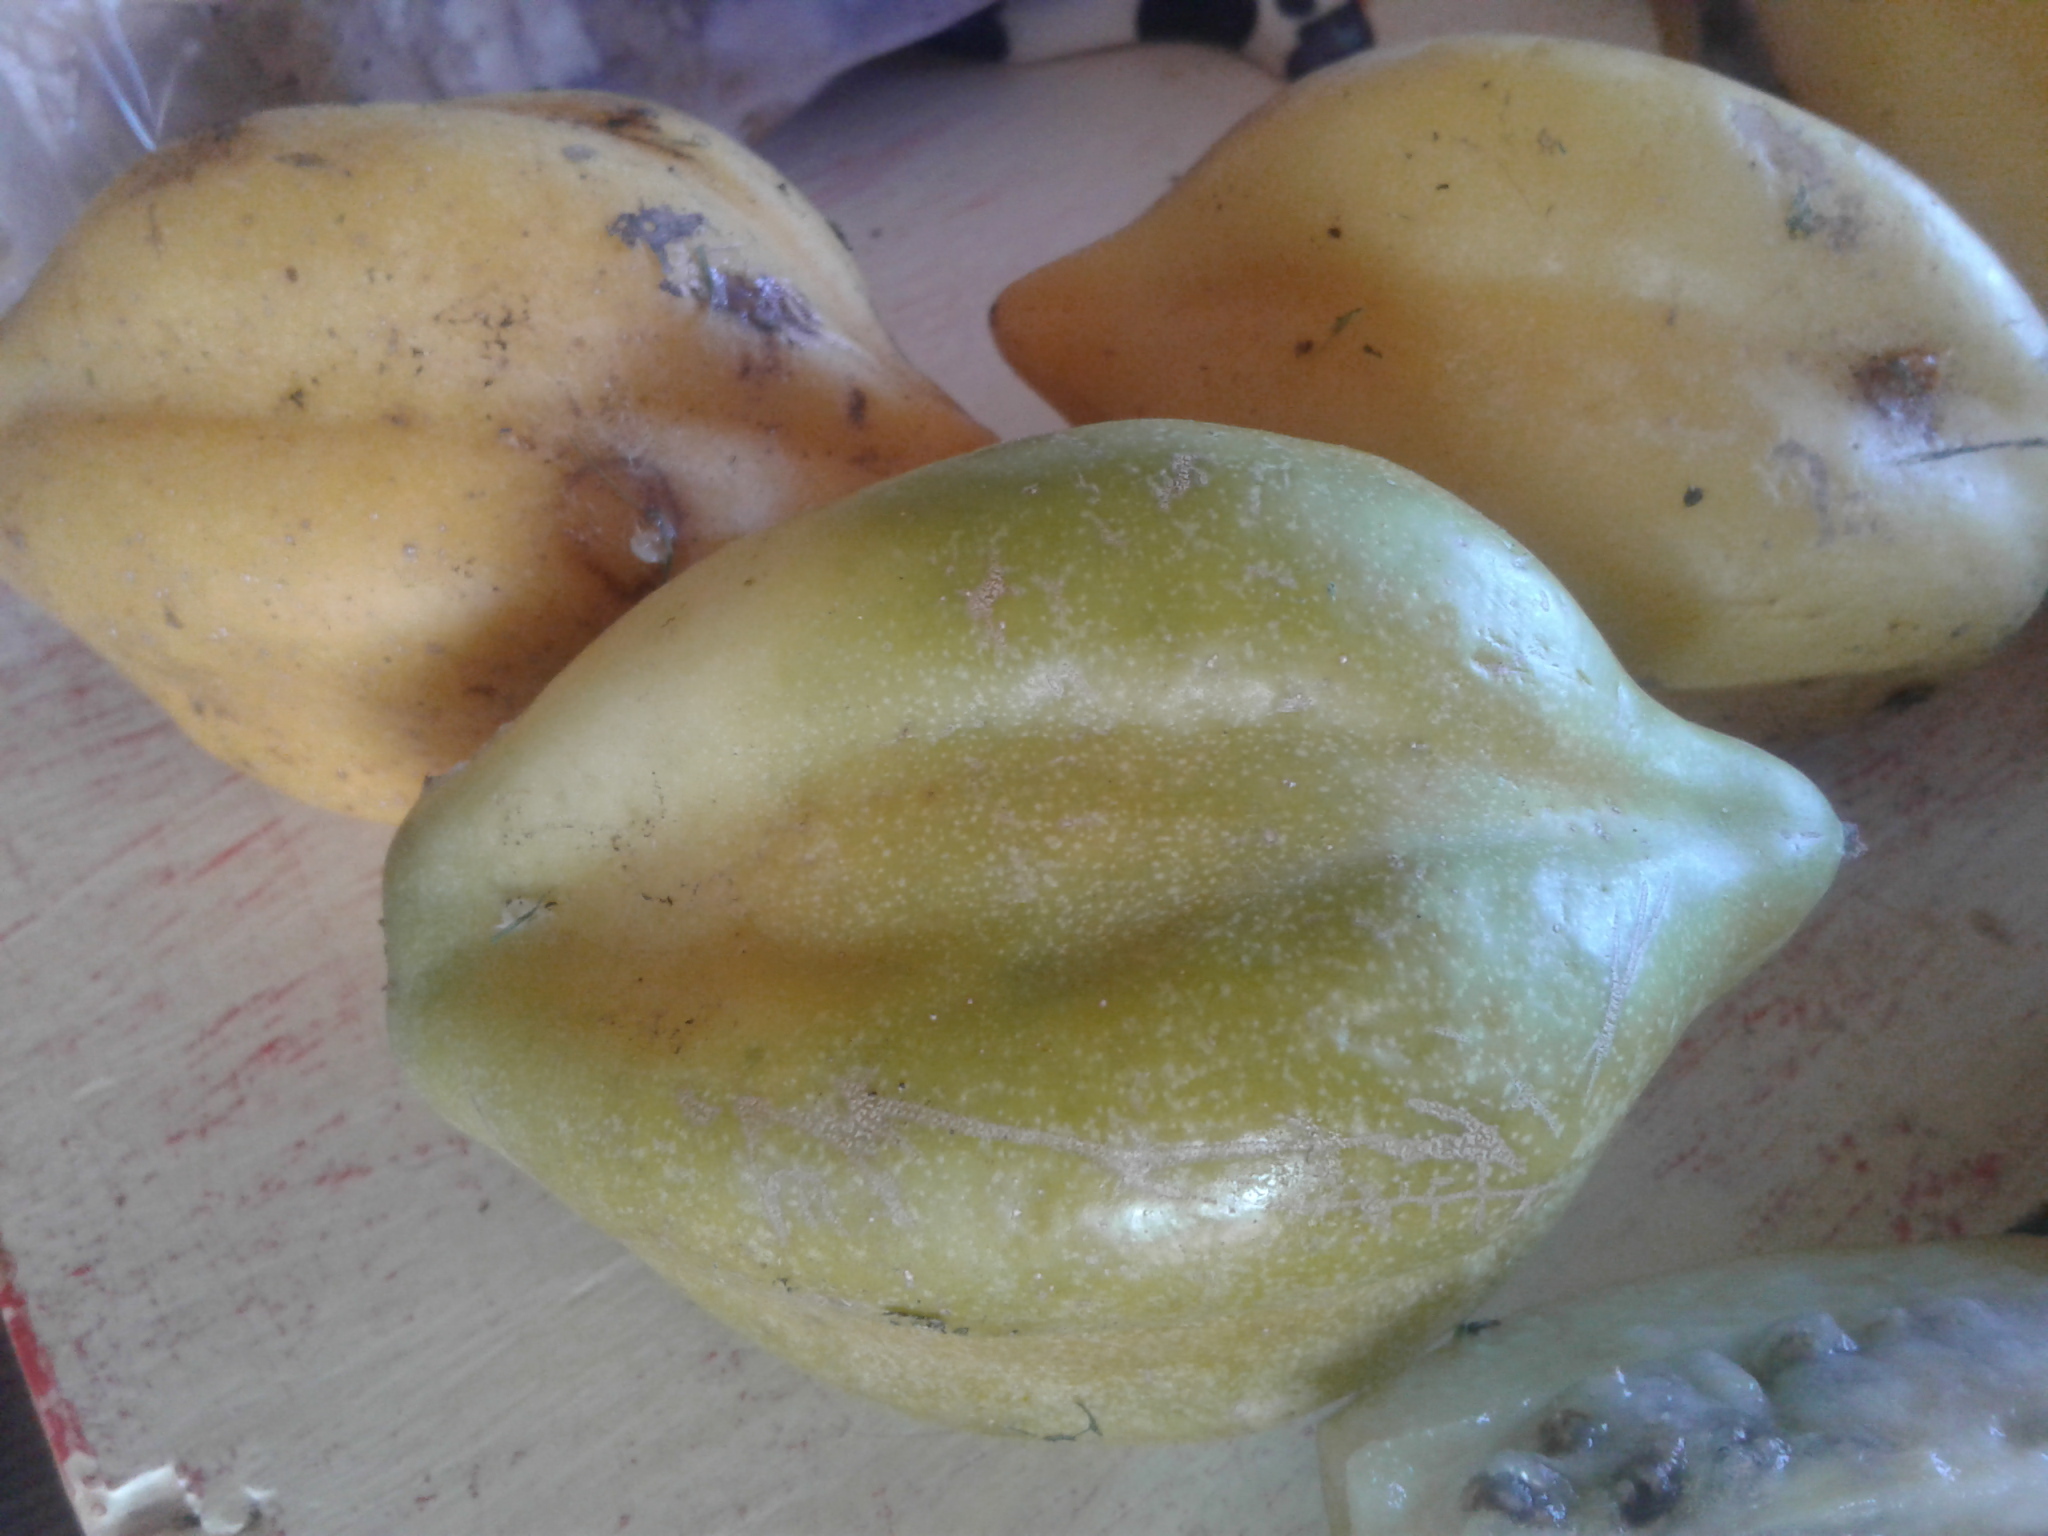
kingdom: Plantae
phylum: Tracheophyta
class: Magnoliopsida
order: Brassicales
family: Caricaceae
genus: Vasconcellea
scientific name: Vasconcellea pubescens
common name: Mountain papaya
